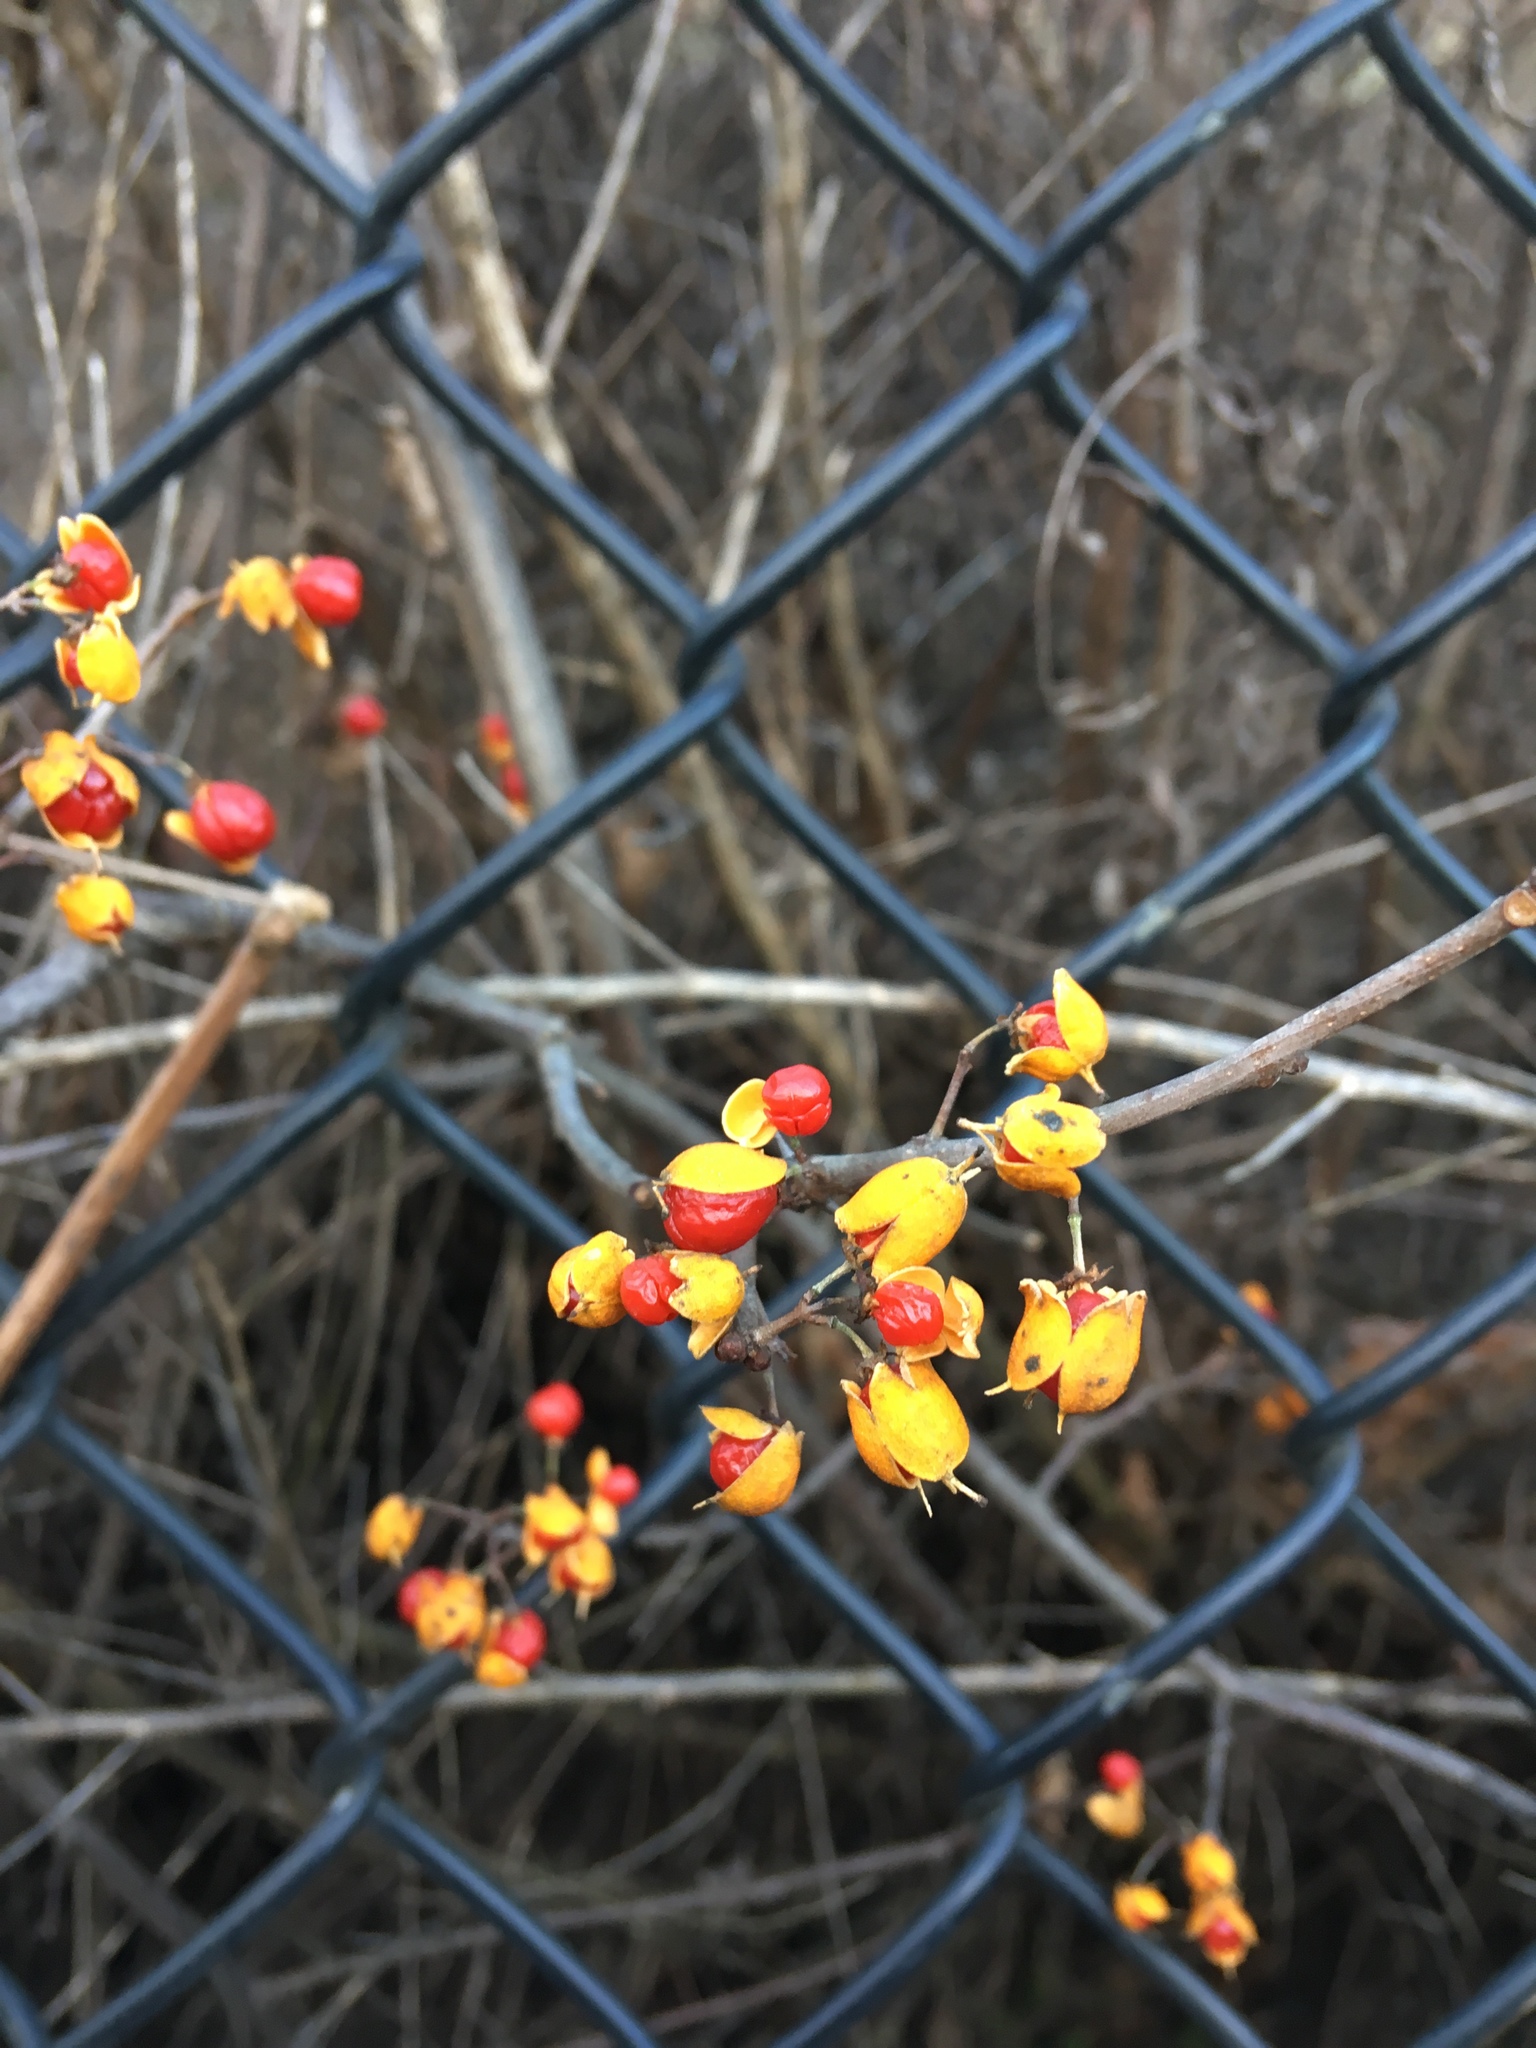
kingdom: Plantae
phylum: Tracheophyta
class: Magnoliopsida
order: Celastrales
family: Celastraceae
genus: Celastrus
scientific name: Celastrus orbiculatus
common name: Oriental bittersweet
